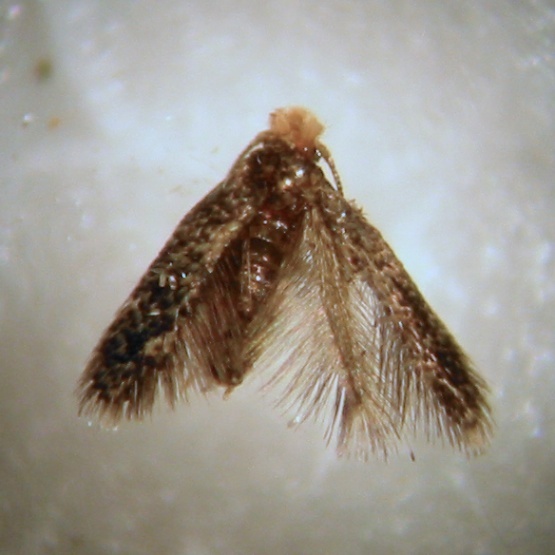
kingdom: Animalia
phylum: Arthropoda
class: Insecta
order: Lepidoptera
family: Nepticulidae
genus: Stigmella
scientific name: Stigmella ogygia
